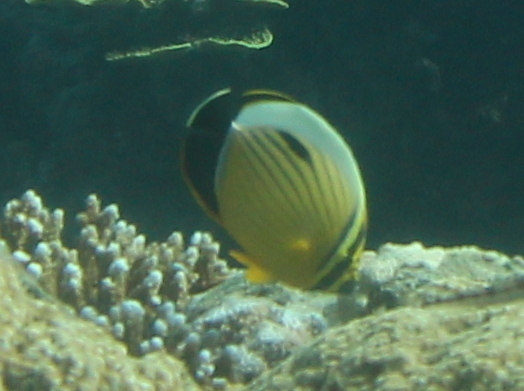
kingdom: Animalia
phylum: Chordata
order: Perciformes
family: Chaetodontidae
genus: Chaetodon
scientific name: Chaetodon austriacus
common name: Exquisite butterflyfish
